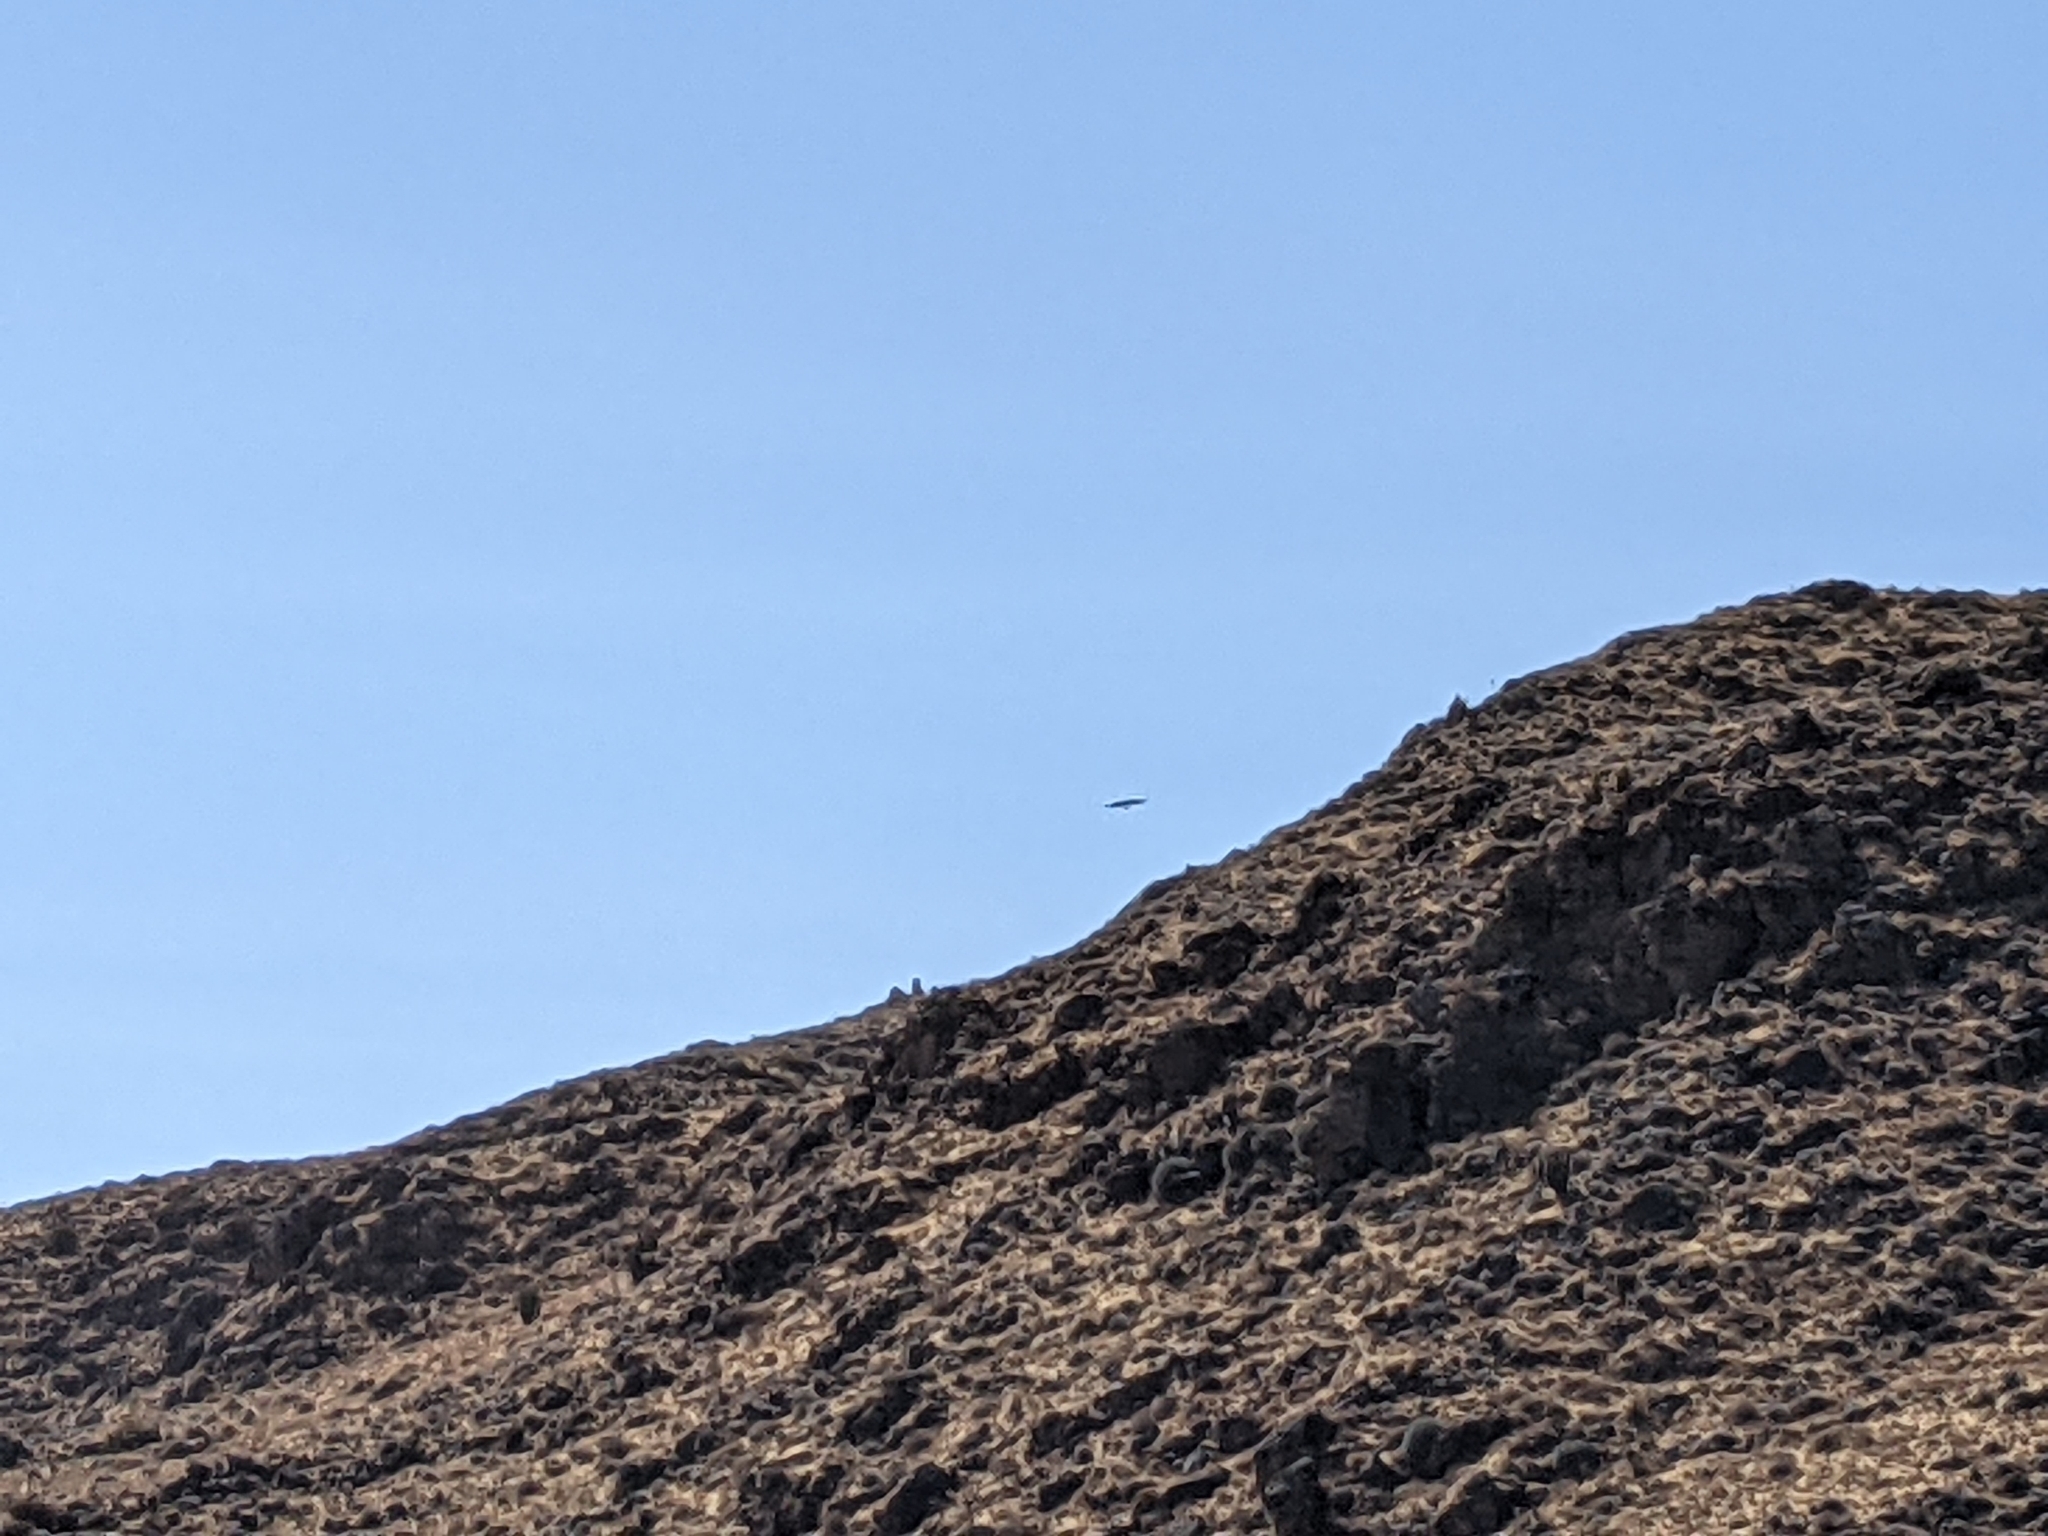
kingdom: Animalia
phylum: Chordata
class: Aves
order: Accipitriformes
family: Cathartidae
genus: Vultur
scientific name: Vultur gryphus
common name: Andean condor
